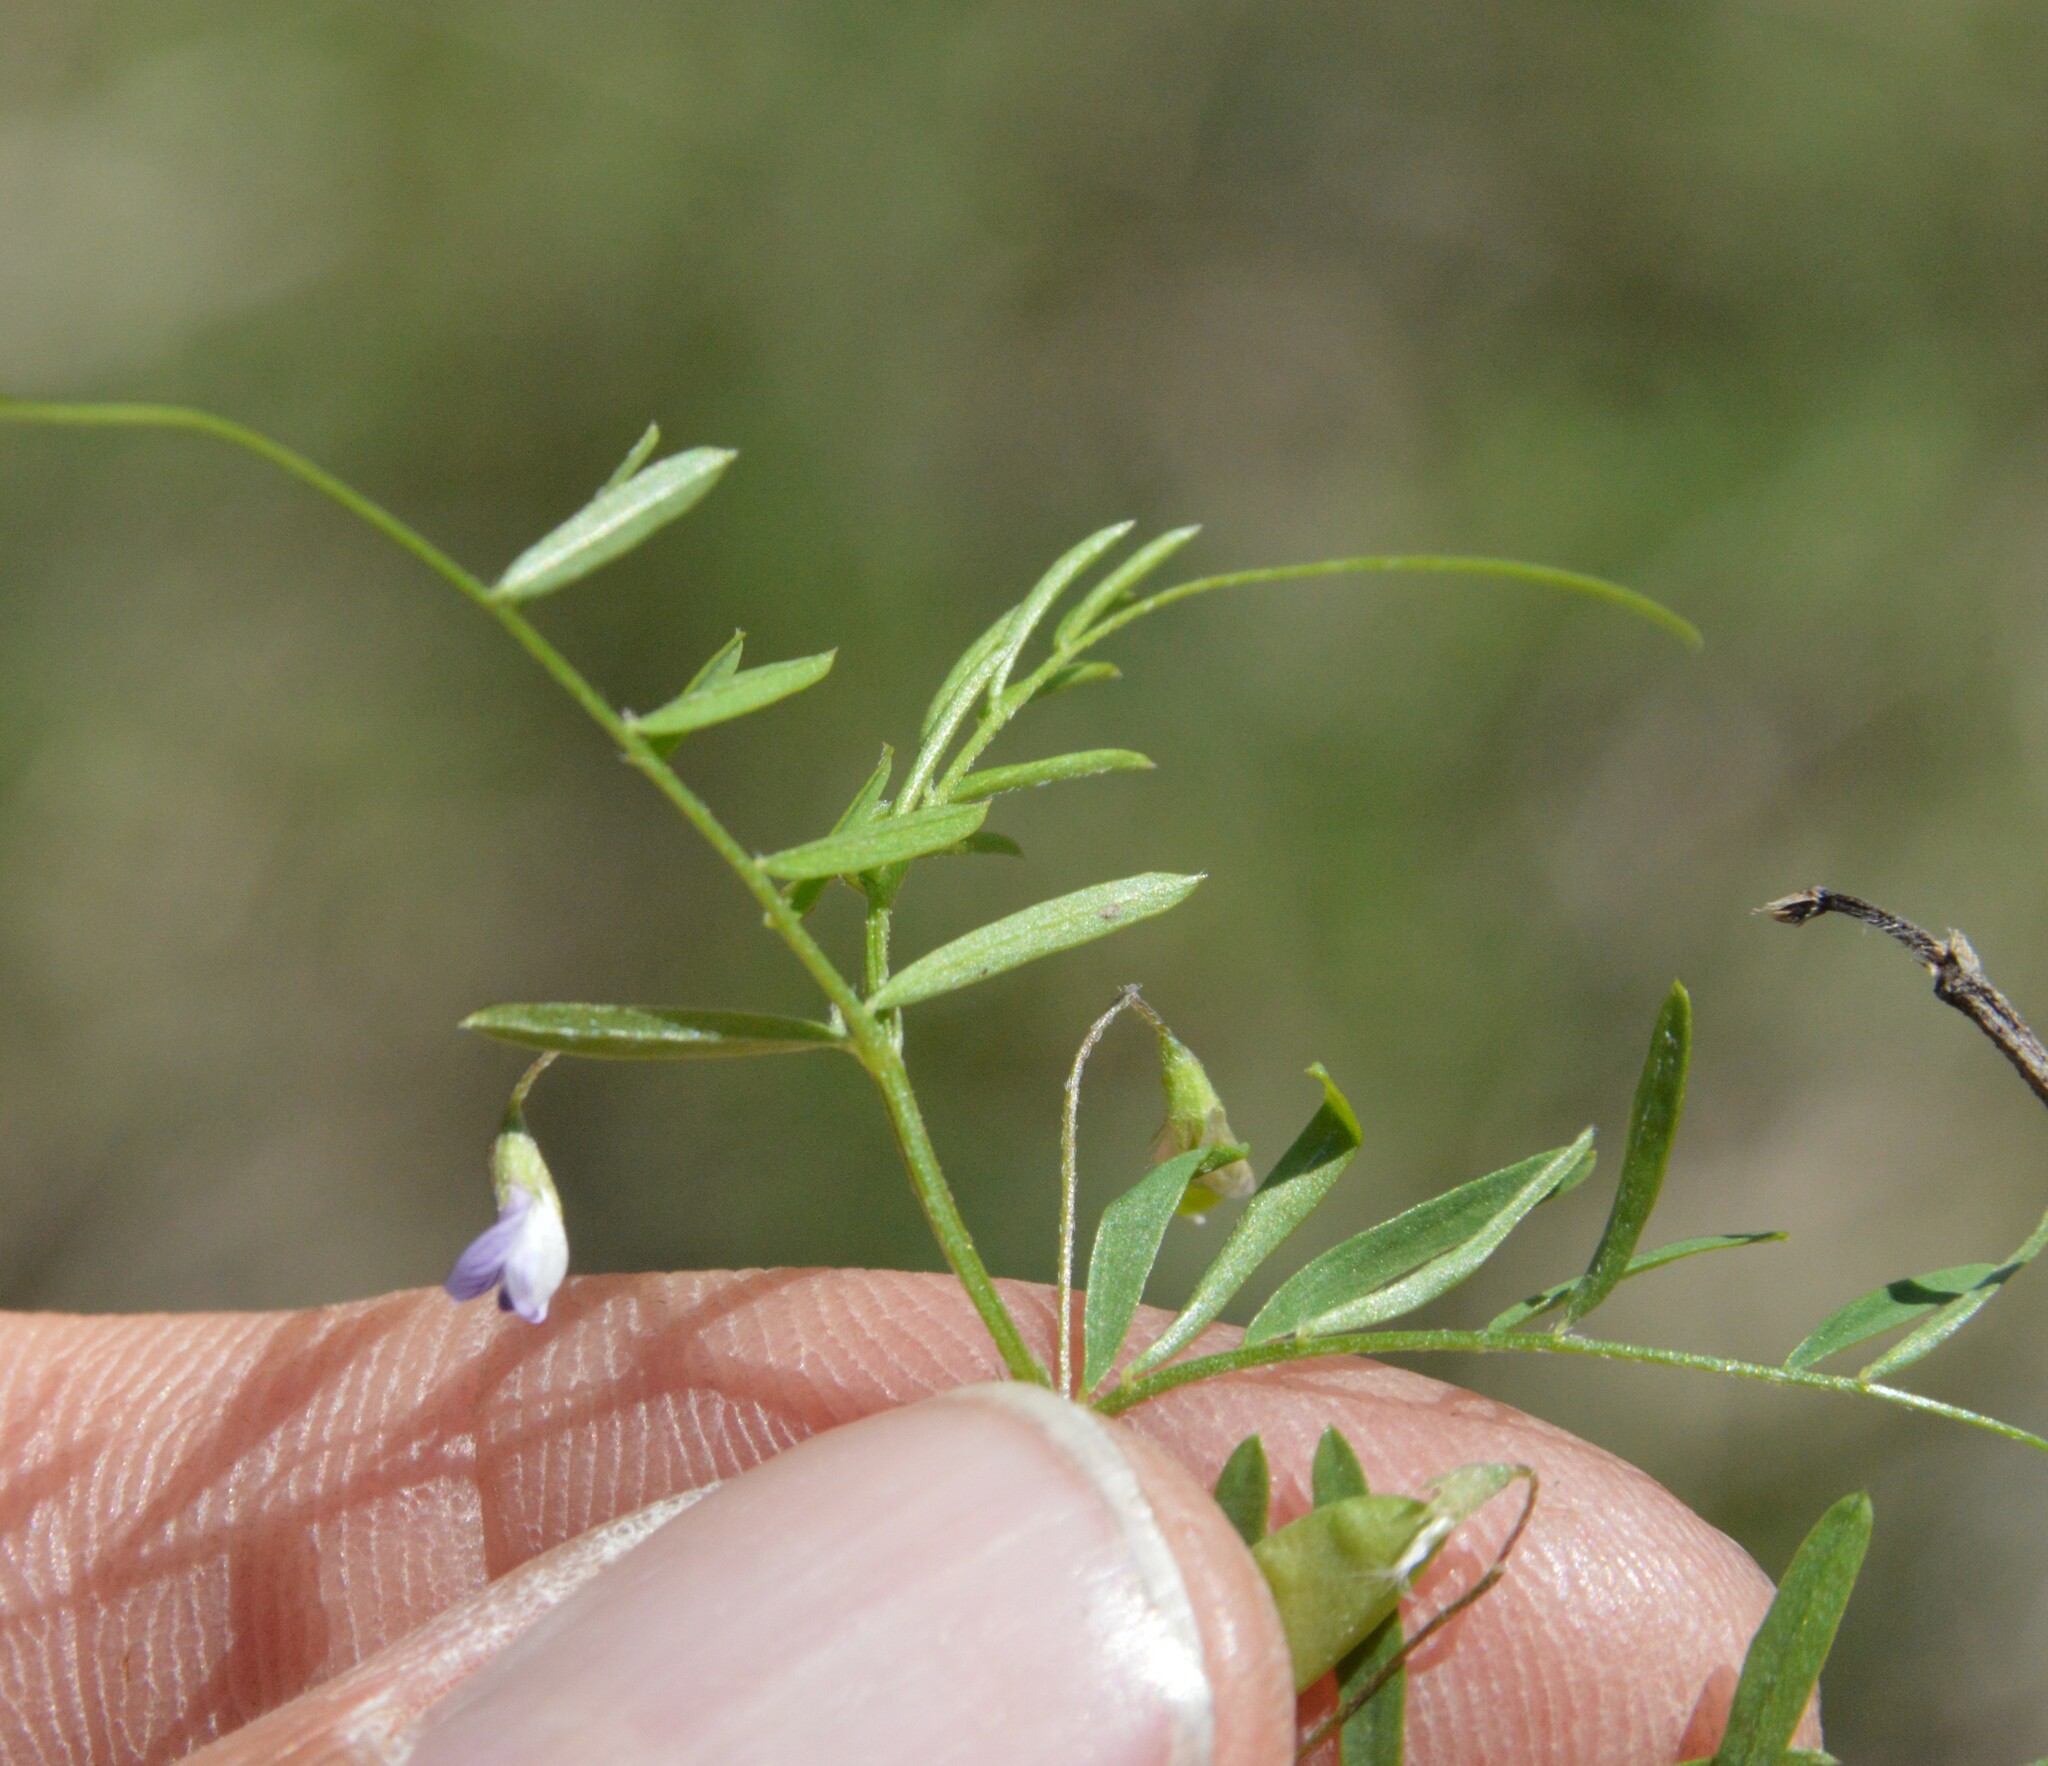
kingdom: Plantae
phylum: Tracheophyta
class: Magnoliopsida
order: Fabales
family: Fabaceae
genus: Vicia
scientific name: Vicia tetrasperma
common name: Smooth tare
